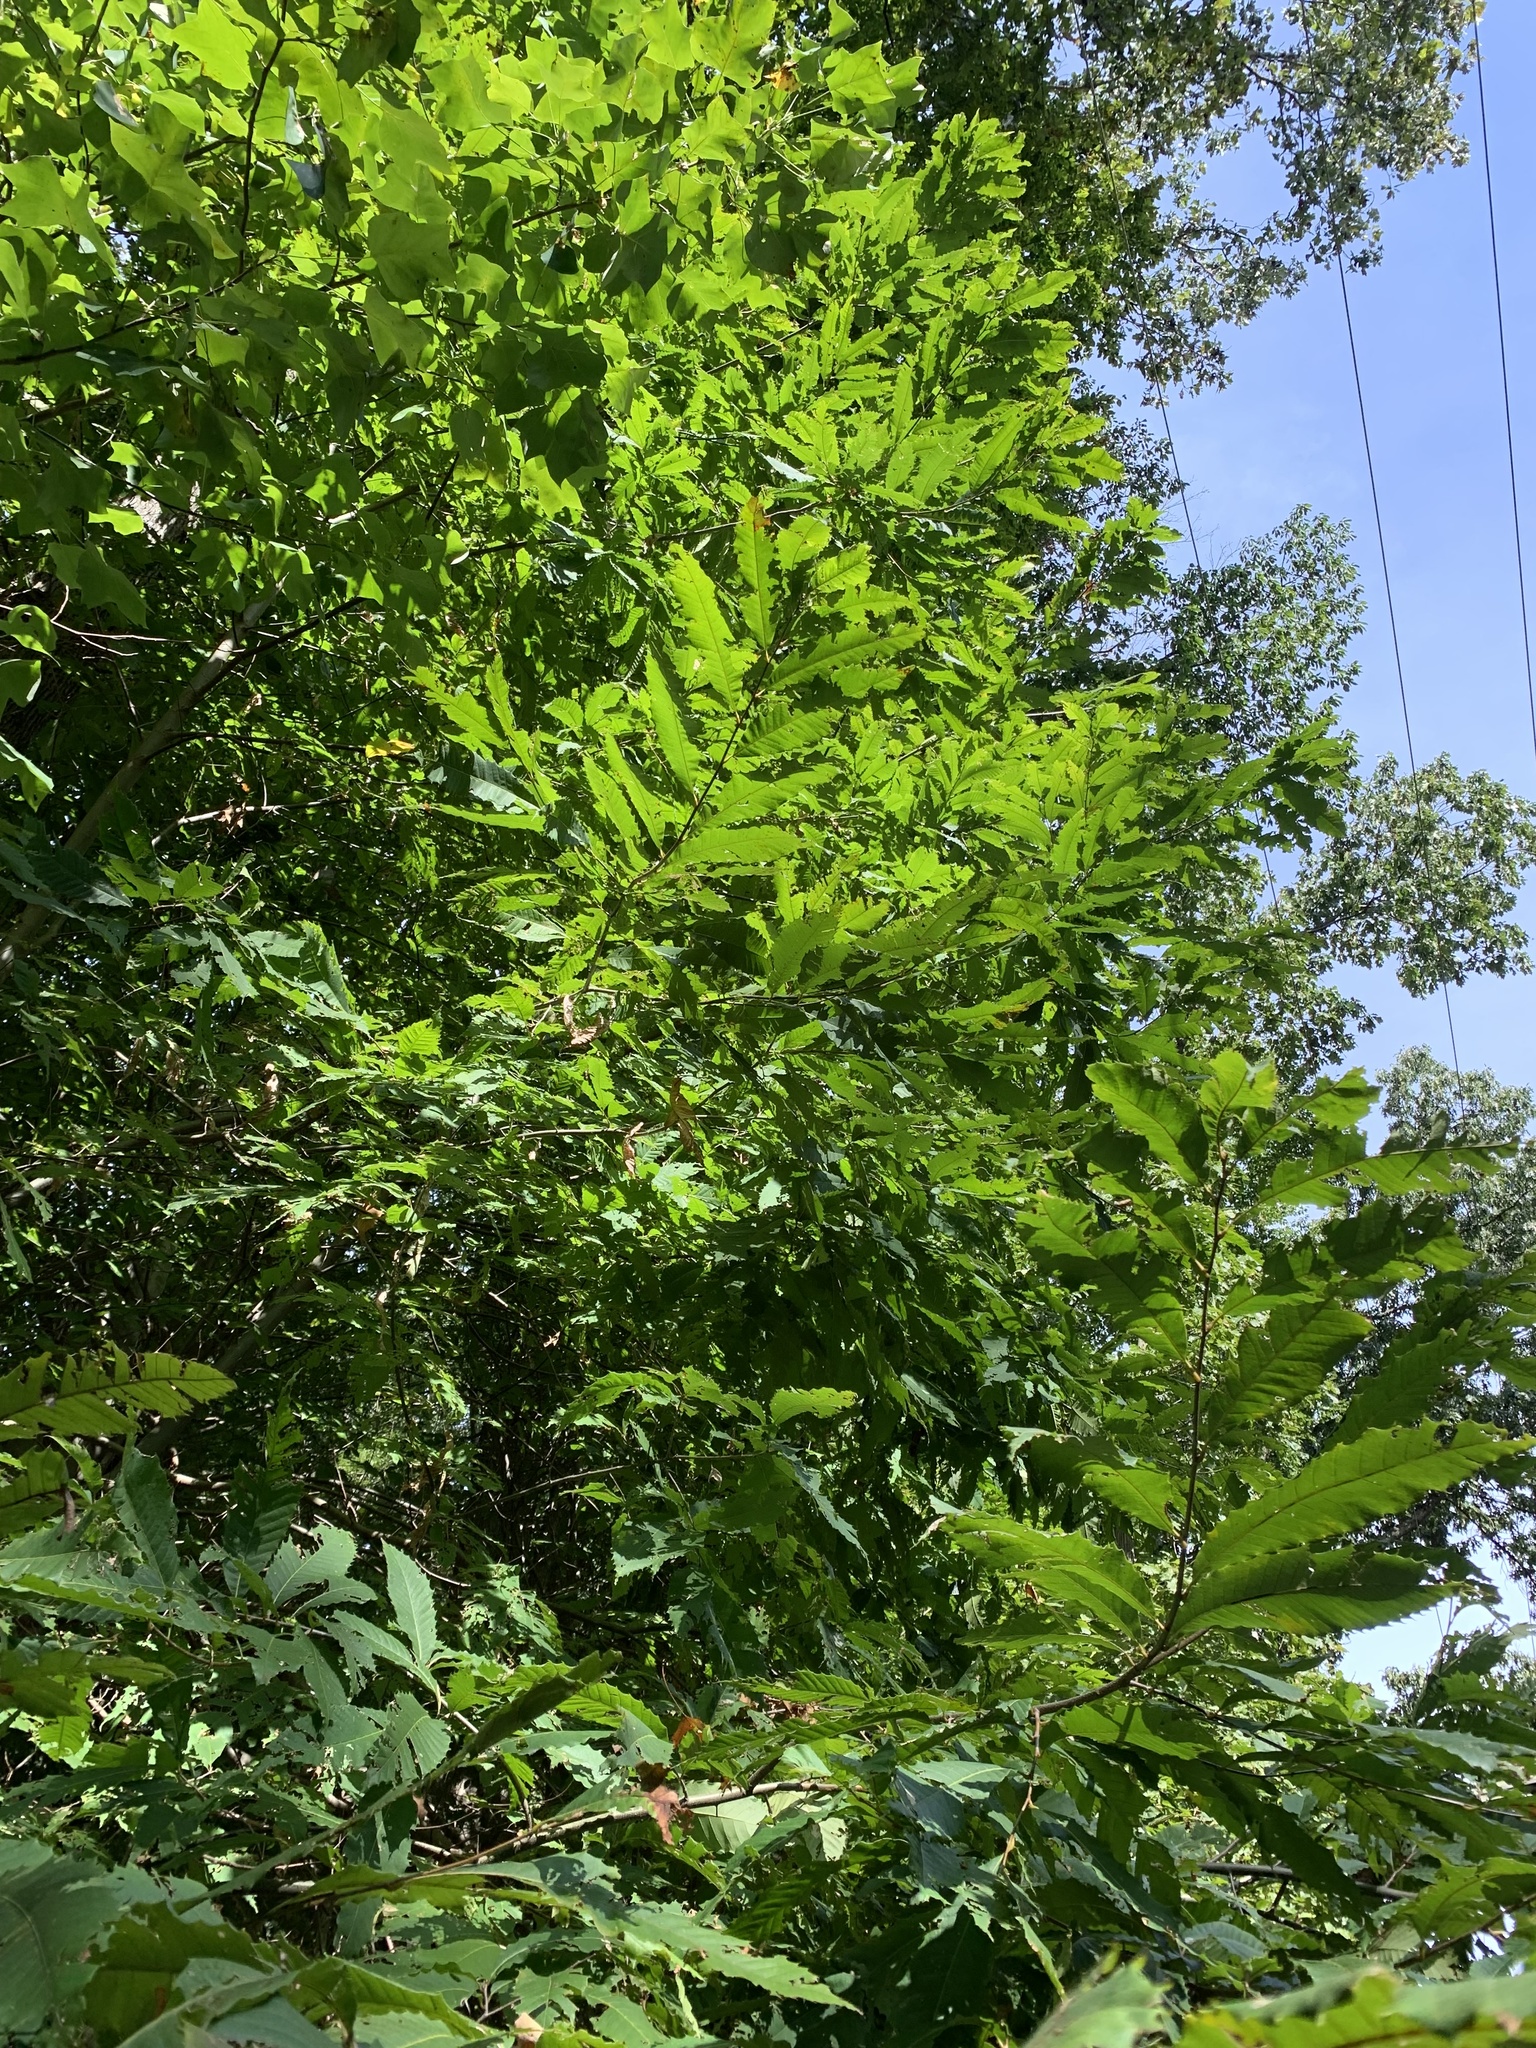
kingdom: Plantae
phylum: Tracheophyta
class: Magnoliopsida
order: Fagales
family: Fagaceae
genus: Castanea
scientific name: Castanea dentata
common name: American chestnut
